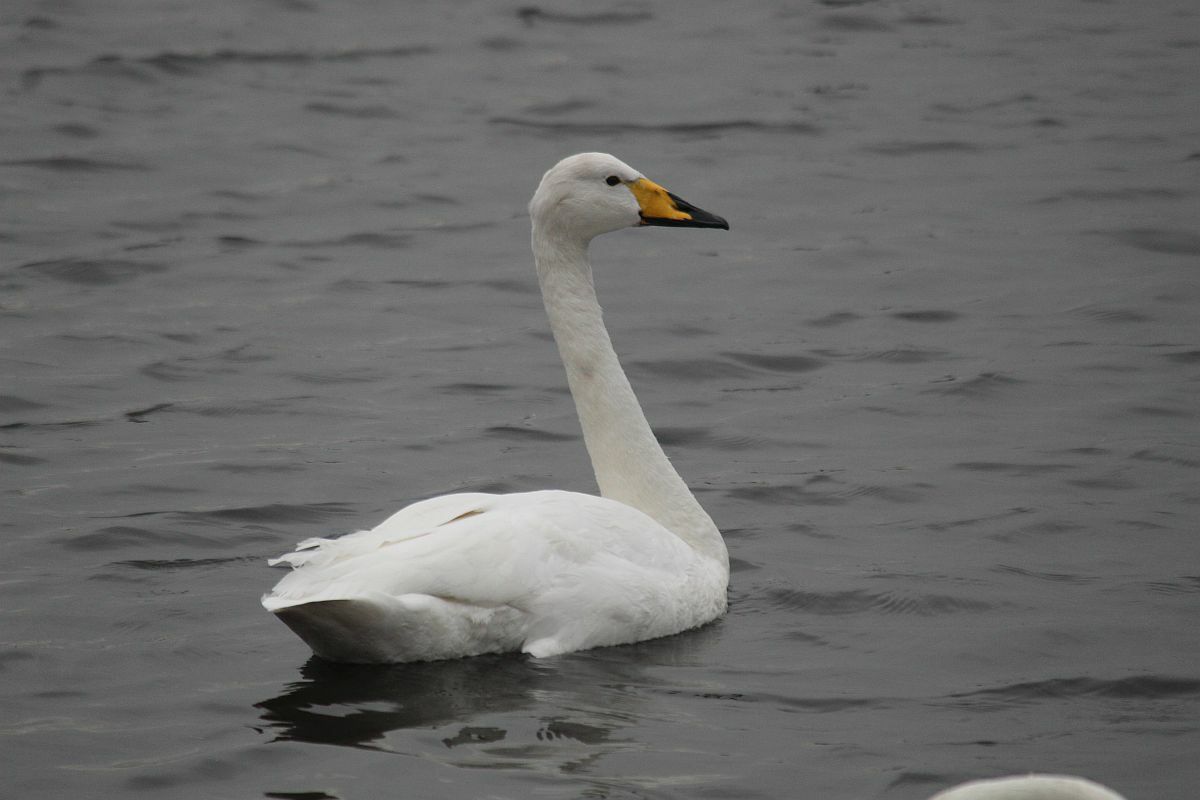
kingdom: Animalia
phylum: Chordata
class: Aves
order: Anseriformes
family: Anatidae
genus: Cygnus
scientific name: Cygnus cygnus
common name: Whooper swan
